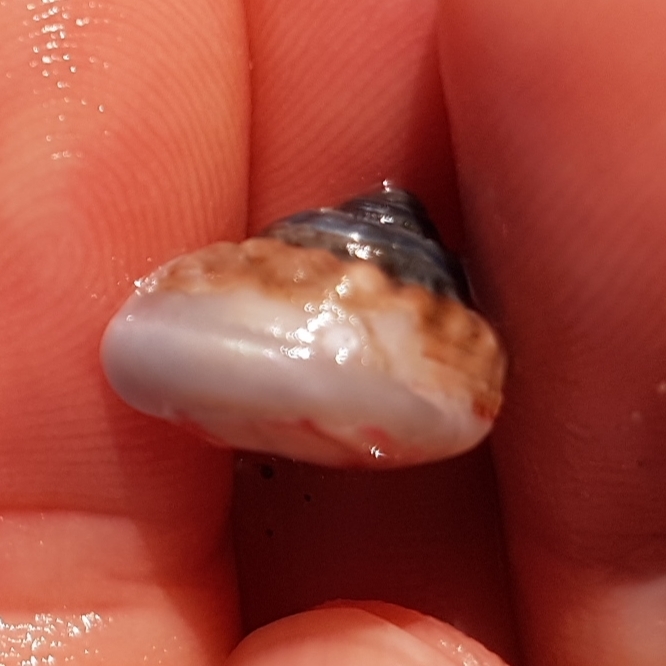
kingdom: Animalia
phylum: Mollusca
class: Gastropoda
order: Trochida
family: Trochidae
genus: Gibbula
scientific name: Gibbula magus
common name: Turban top shell
